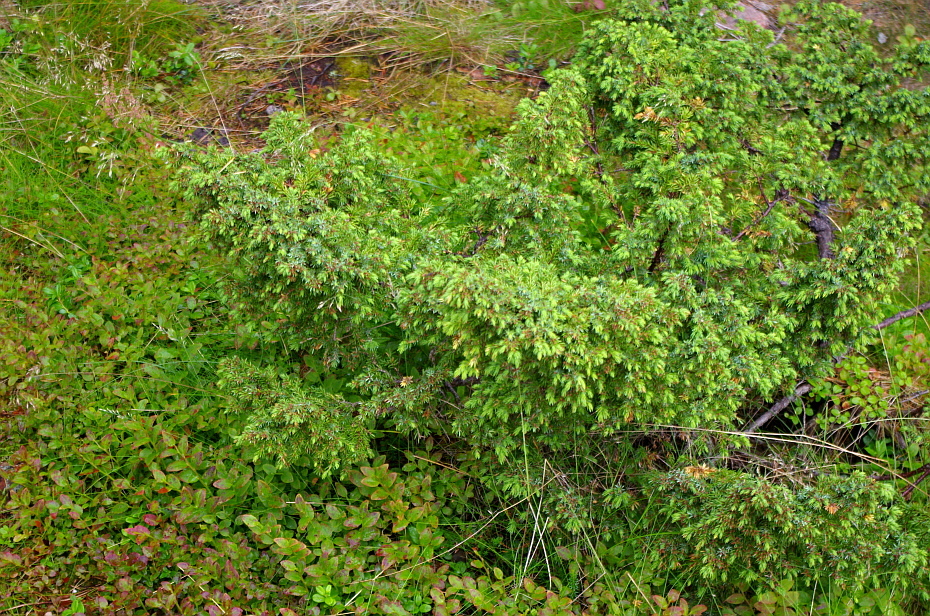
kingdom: Plantae
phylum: Tracheophyta
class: Pinopsida
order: Pinales
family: Cupressaceae
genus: Juniperus
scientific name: Juniperus communis
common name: Common juniper
